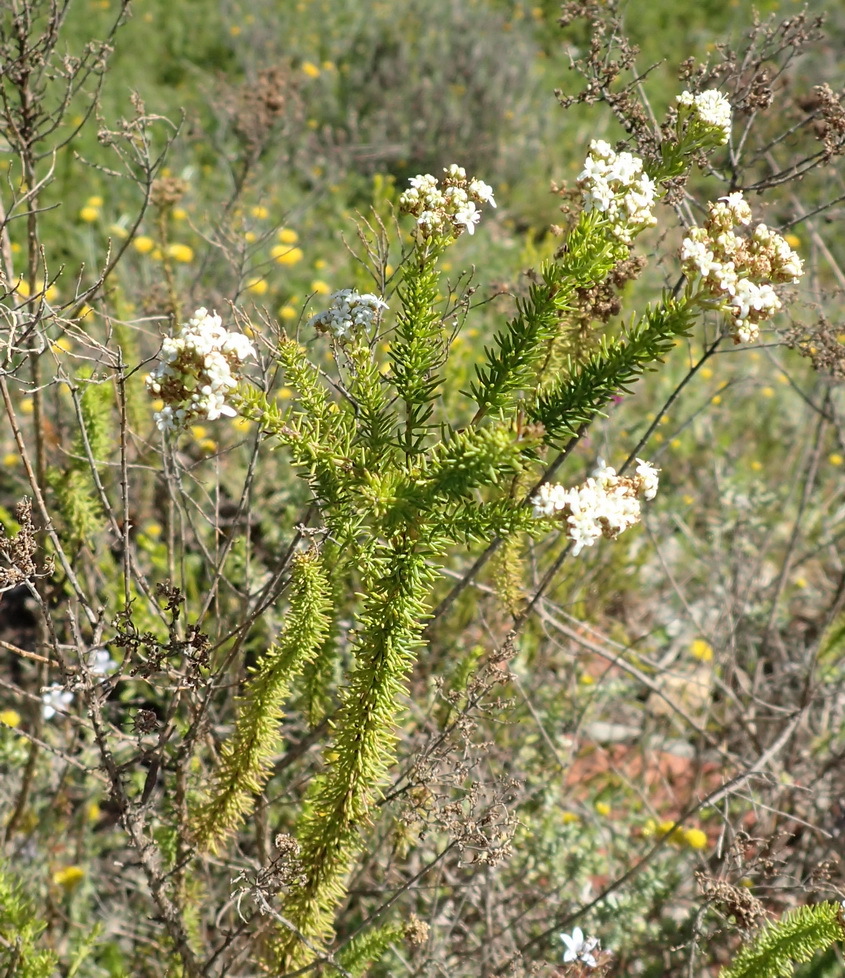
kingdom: Plantae
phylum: Tracheophyta
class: Magnoliopsida
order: Lamiales
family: Scrophulariaceae
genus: Selago
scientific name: Selago corymbosa
